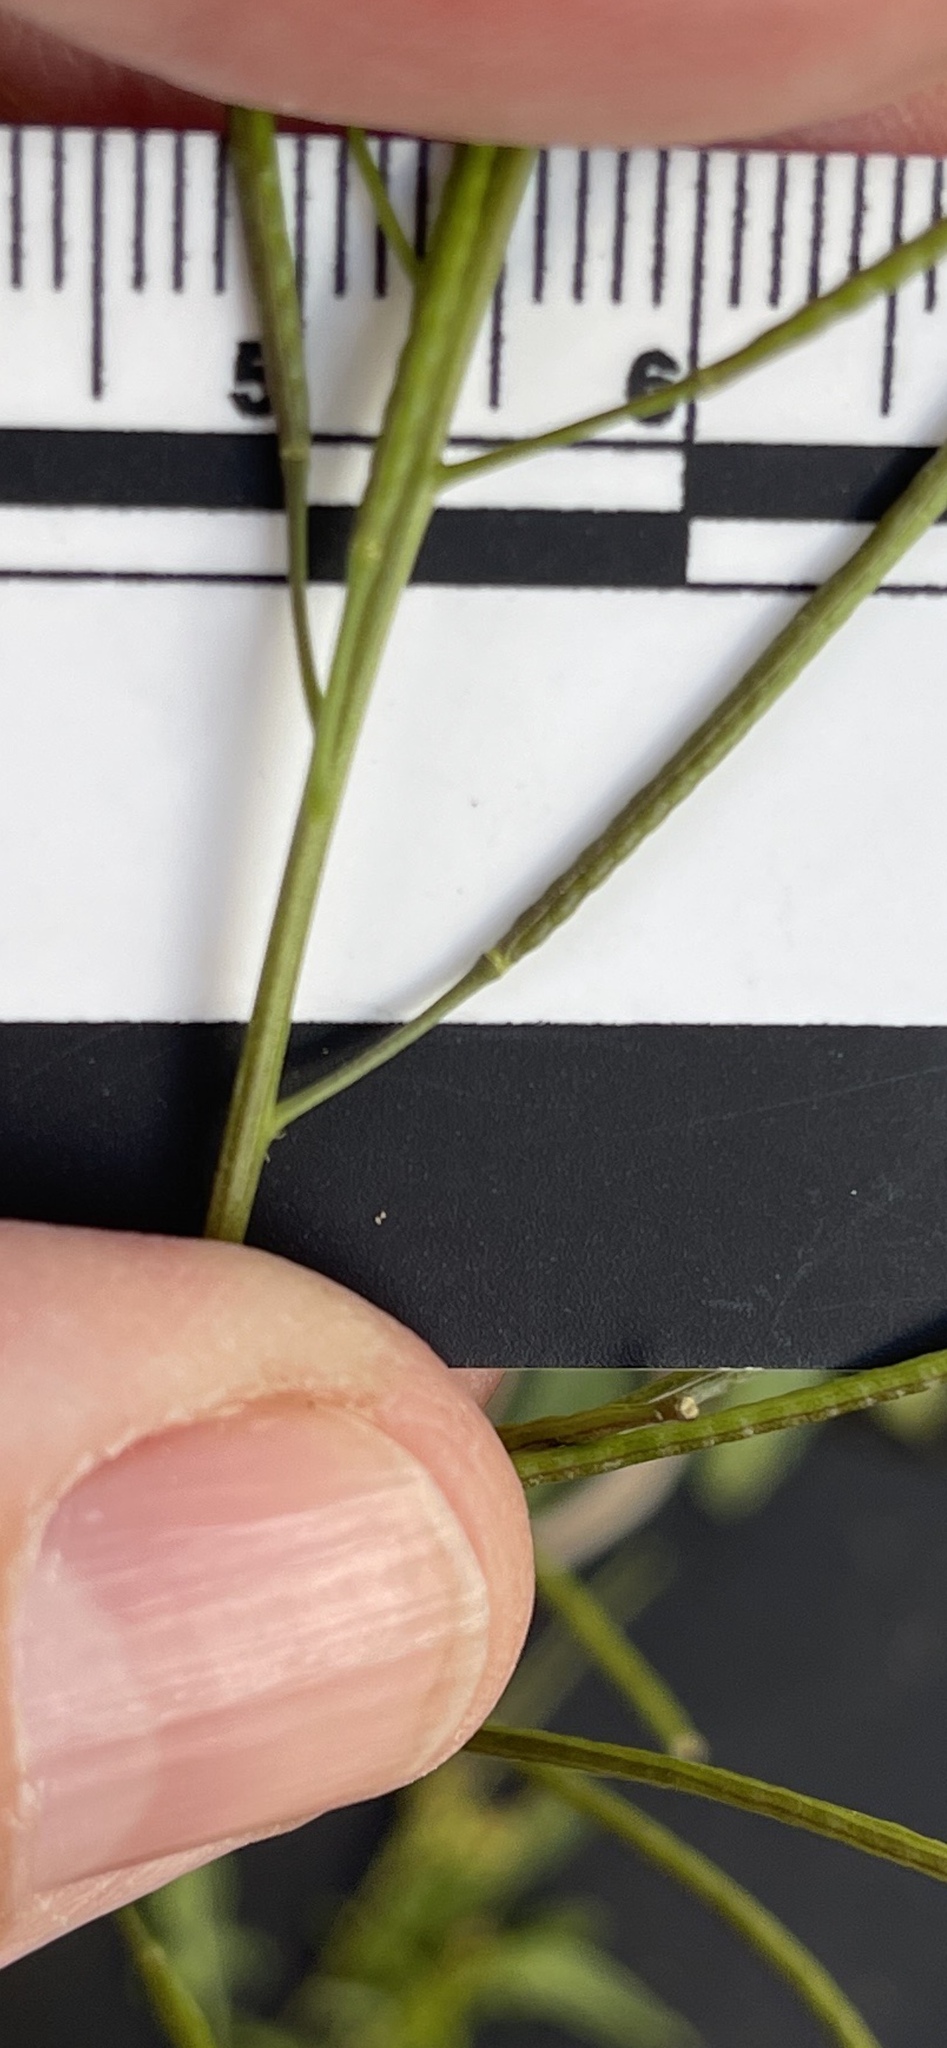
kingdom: Plantae
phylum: Tracheophyta
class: Magnoliopsida
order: Brassicales
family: Brassicaceae
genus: Sisymbrium
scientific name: Sisymbrium irio
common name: London rocket
